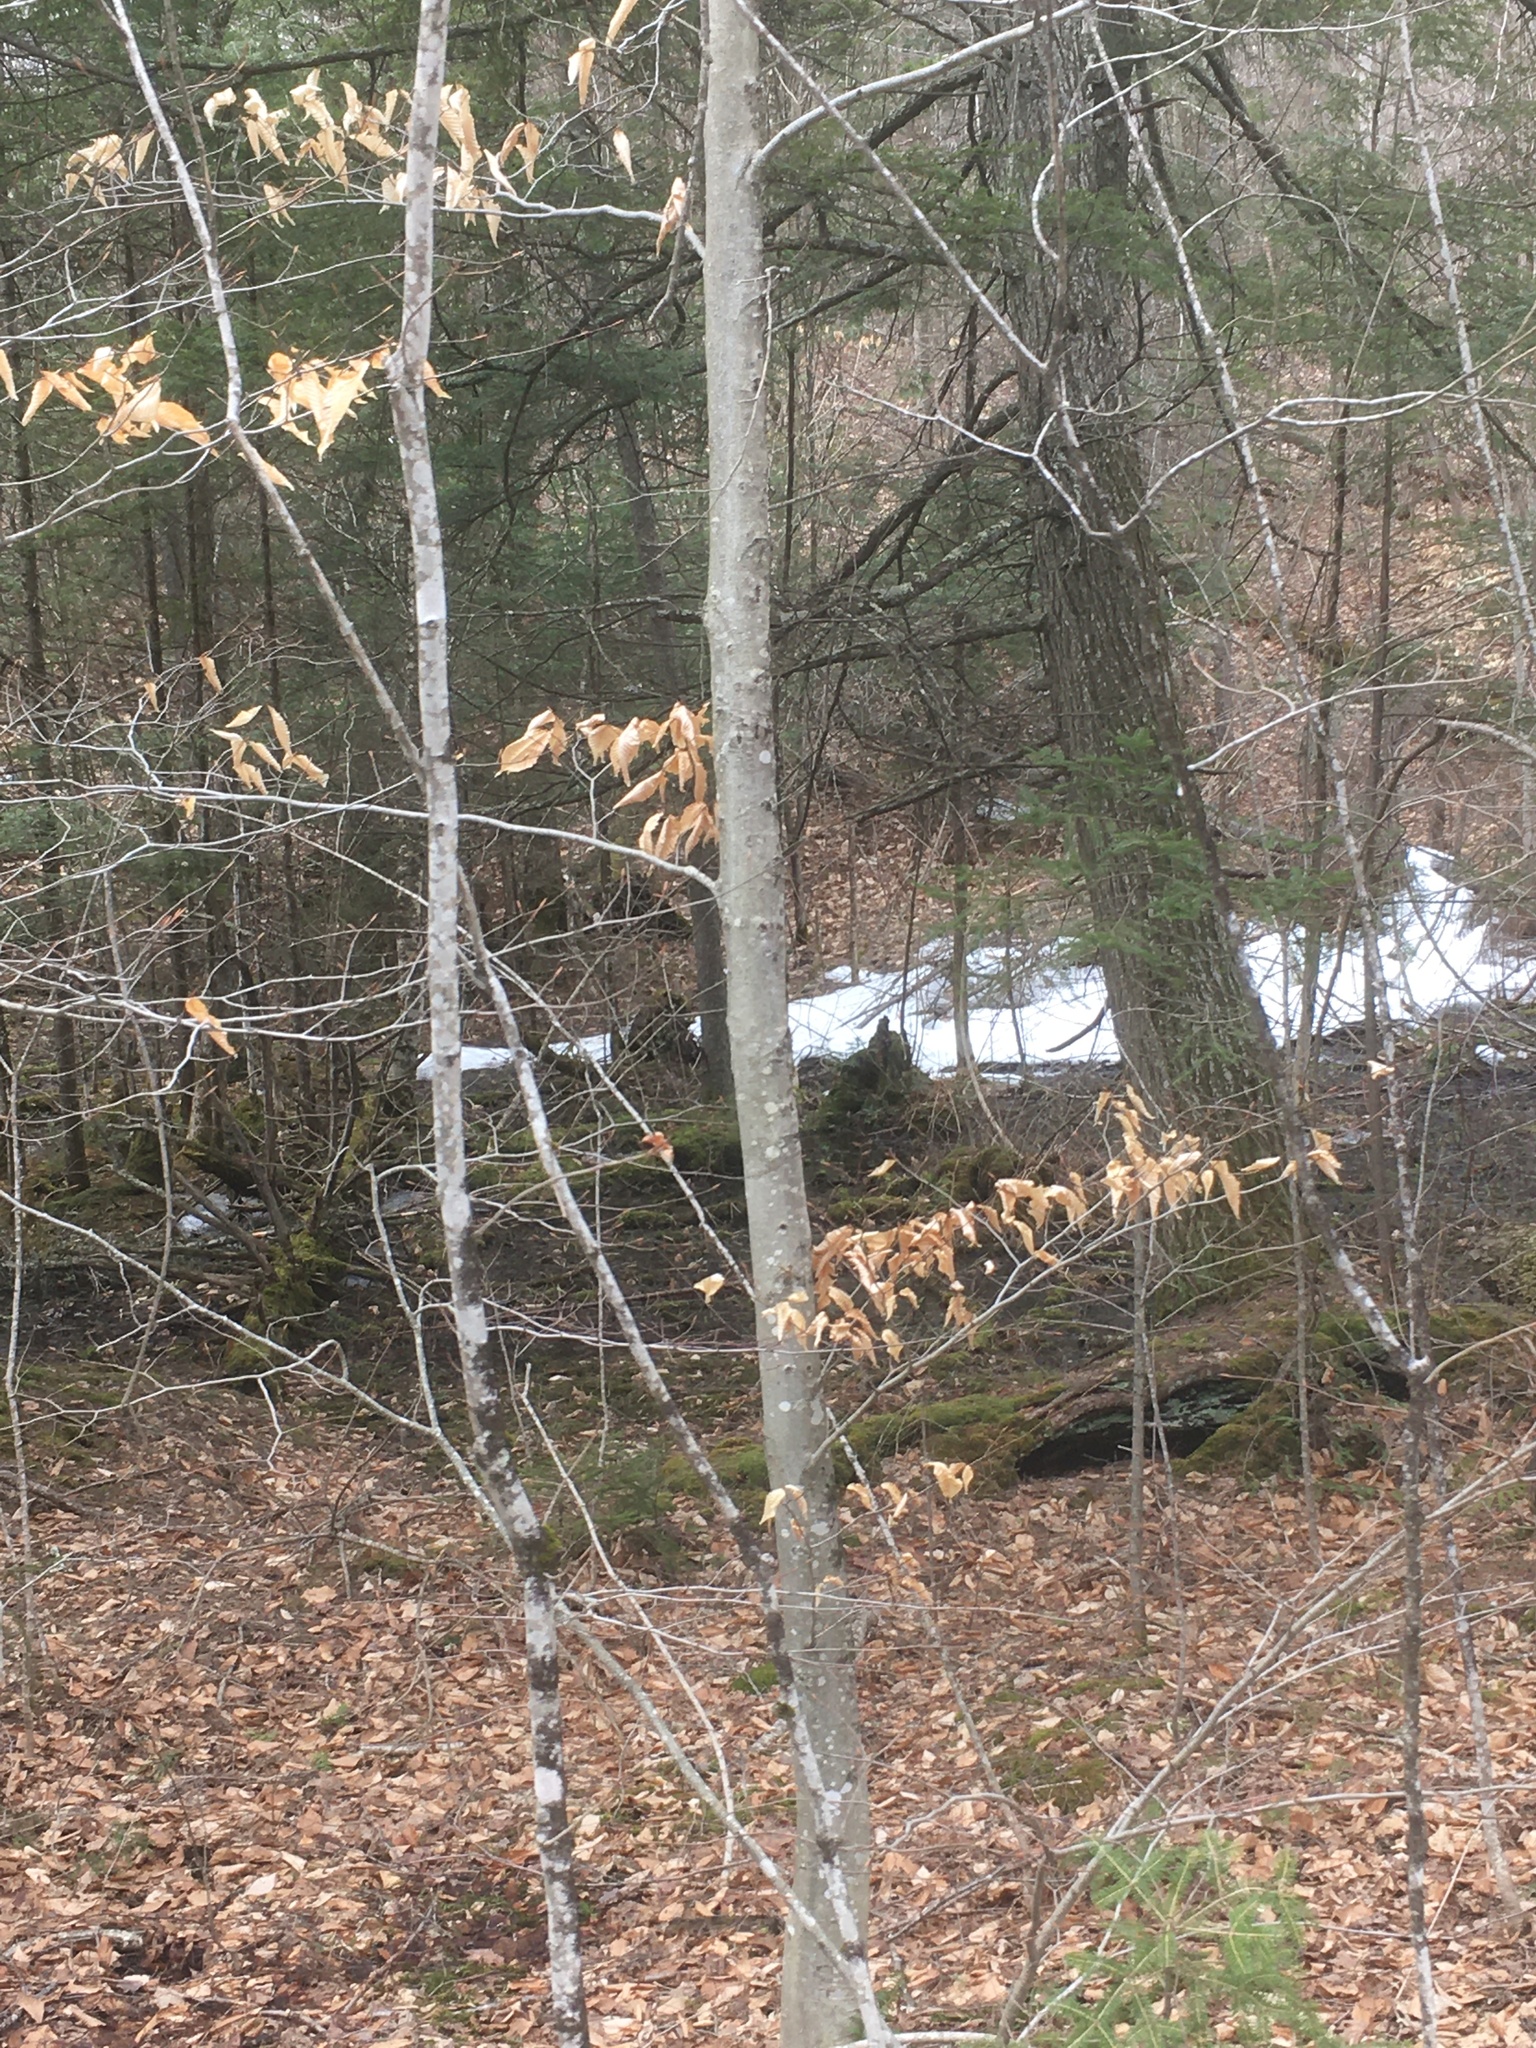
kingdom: Plantae
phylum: Tracheophyta
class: Magnoliopsida
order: Fagales
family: Fagaceae
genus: Fagus
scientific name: Fagus grandifolia
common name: American beech
